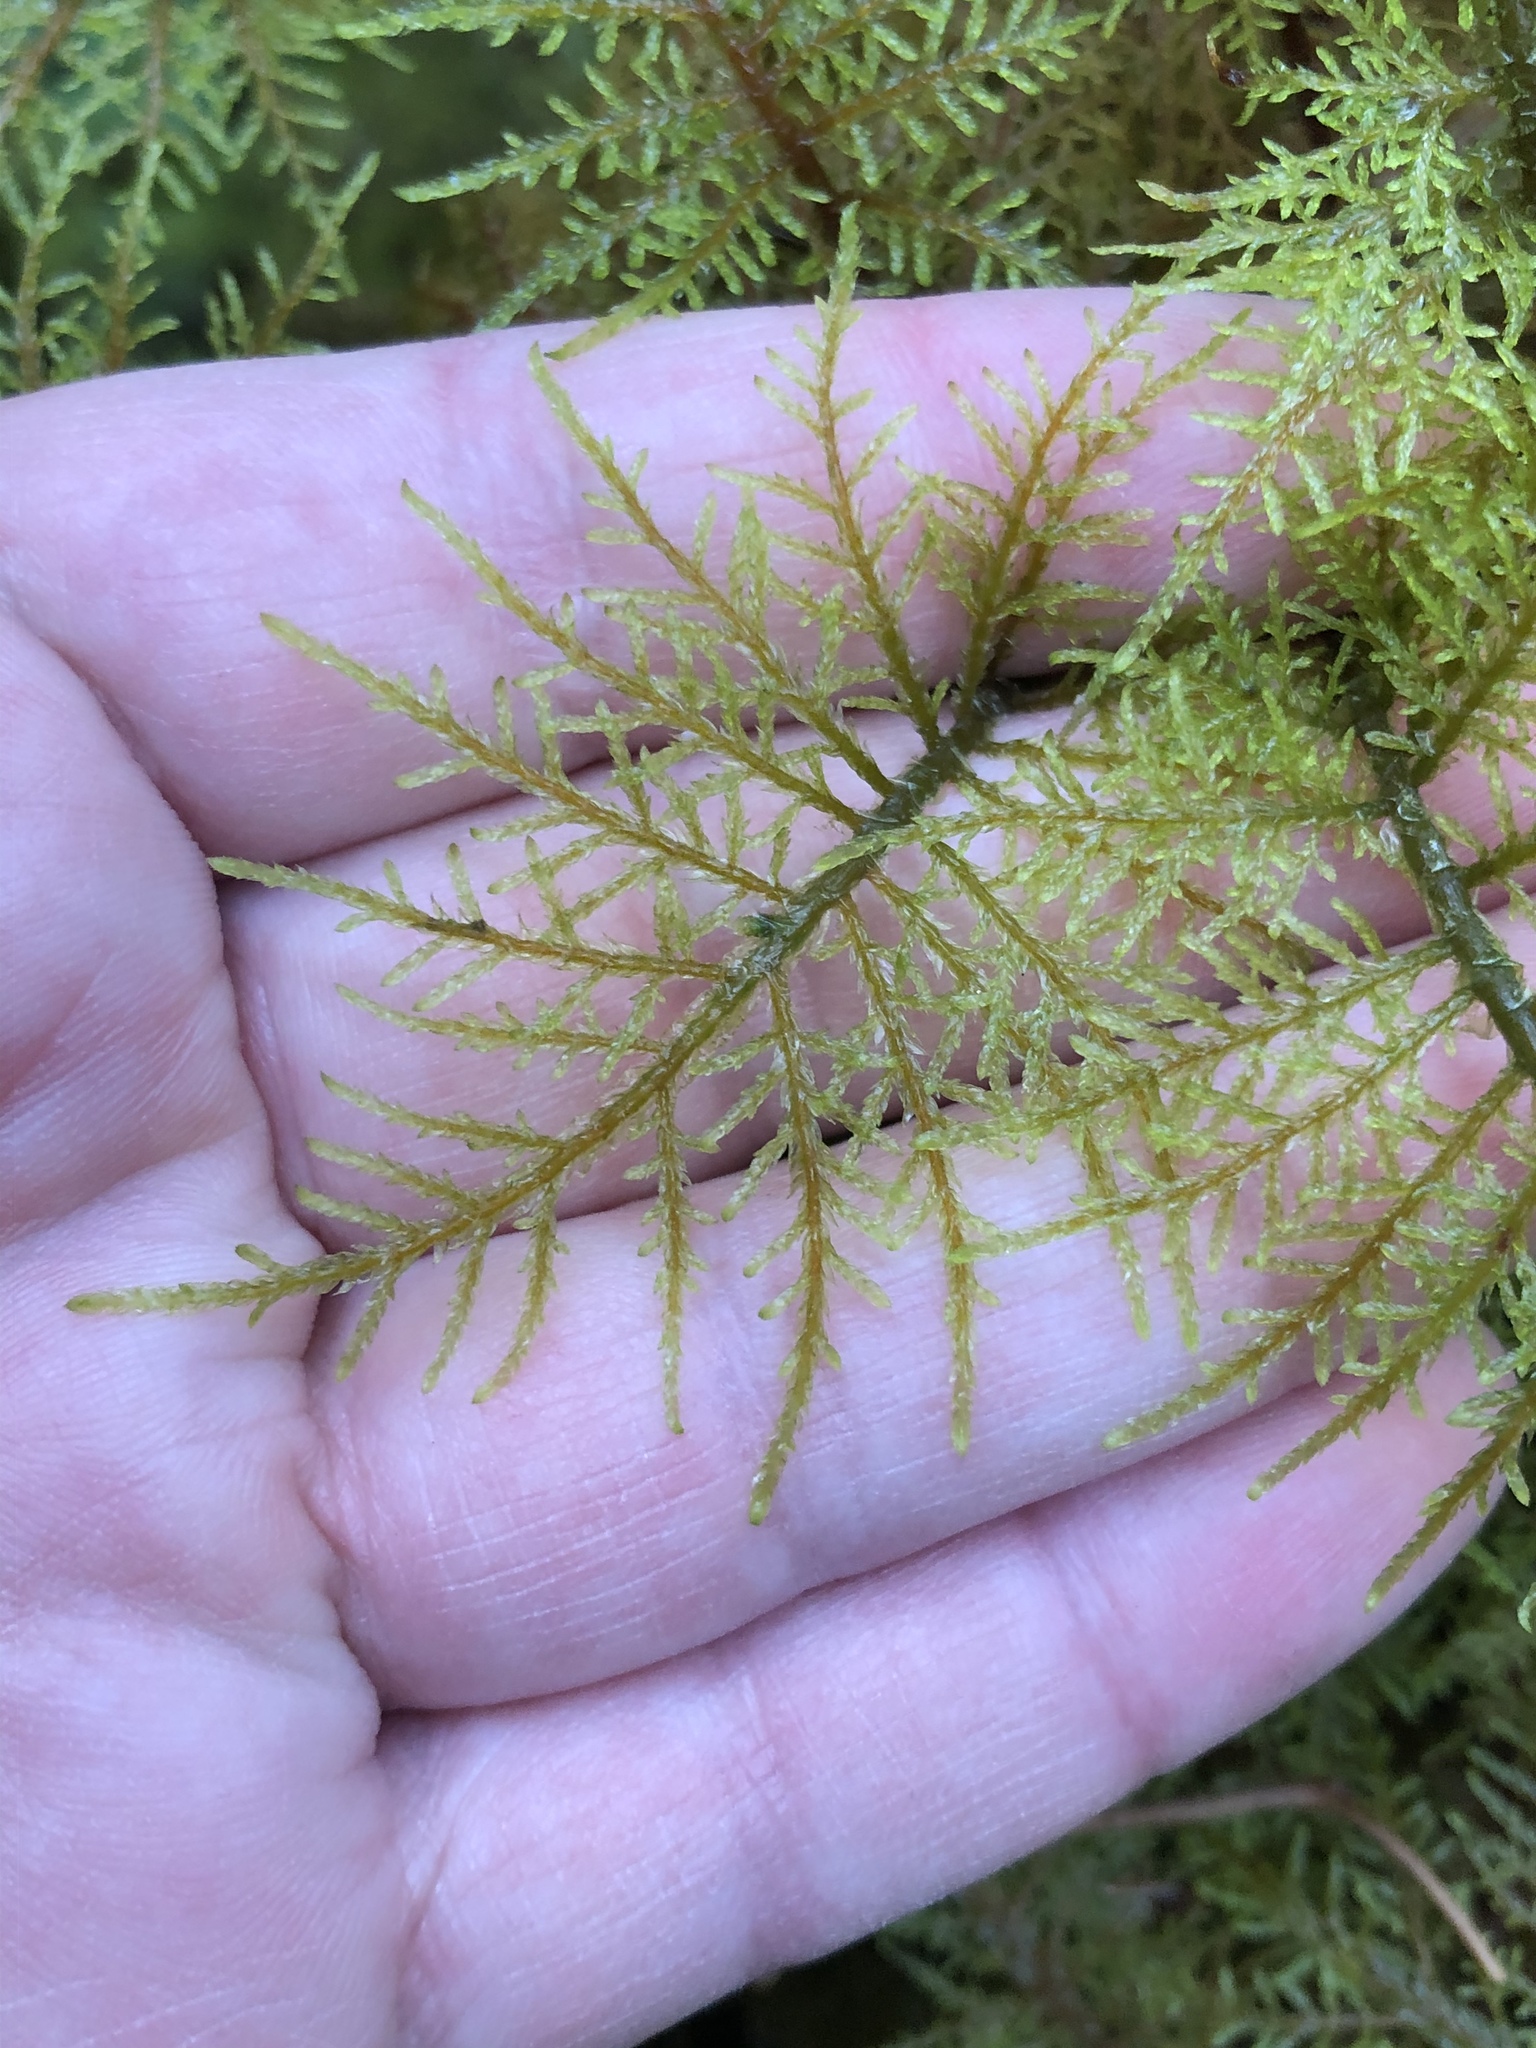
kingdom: Plantae
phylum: Bryophyta
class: Bryopsida
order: Hypnales
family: Hylocomiaceae
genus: Hylocomium
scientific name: Hylocomium splendens
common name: Stairstep moss
